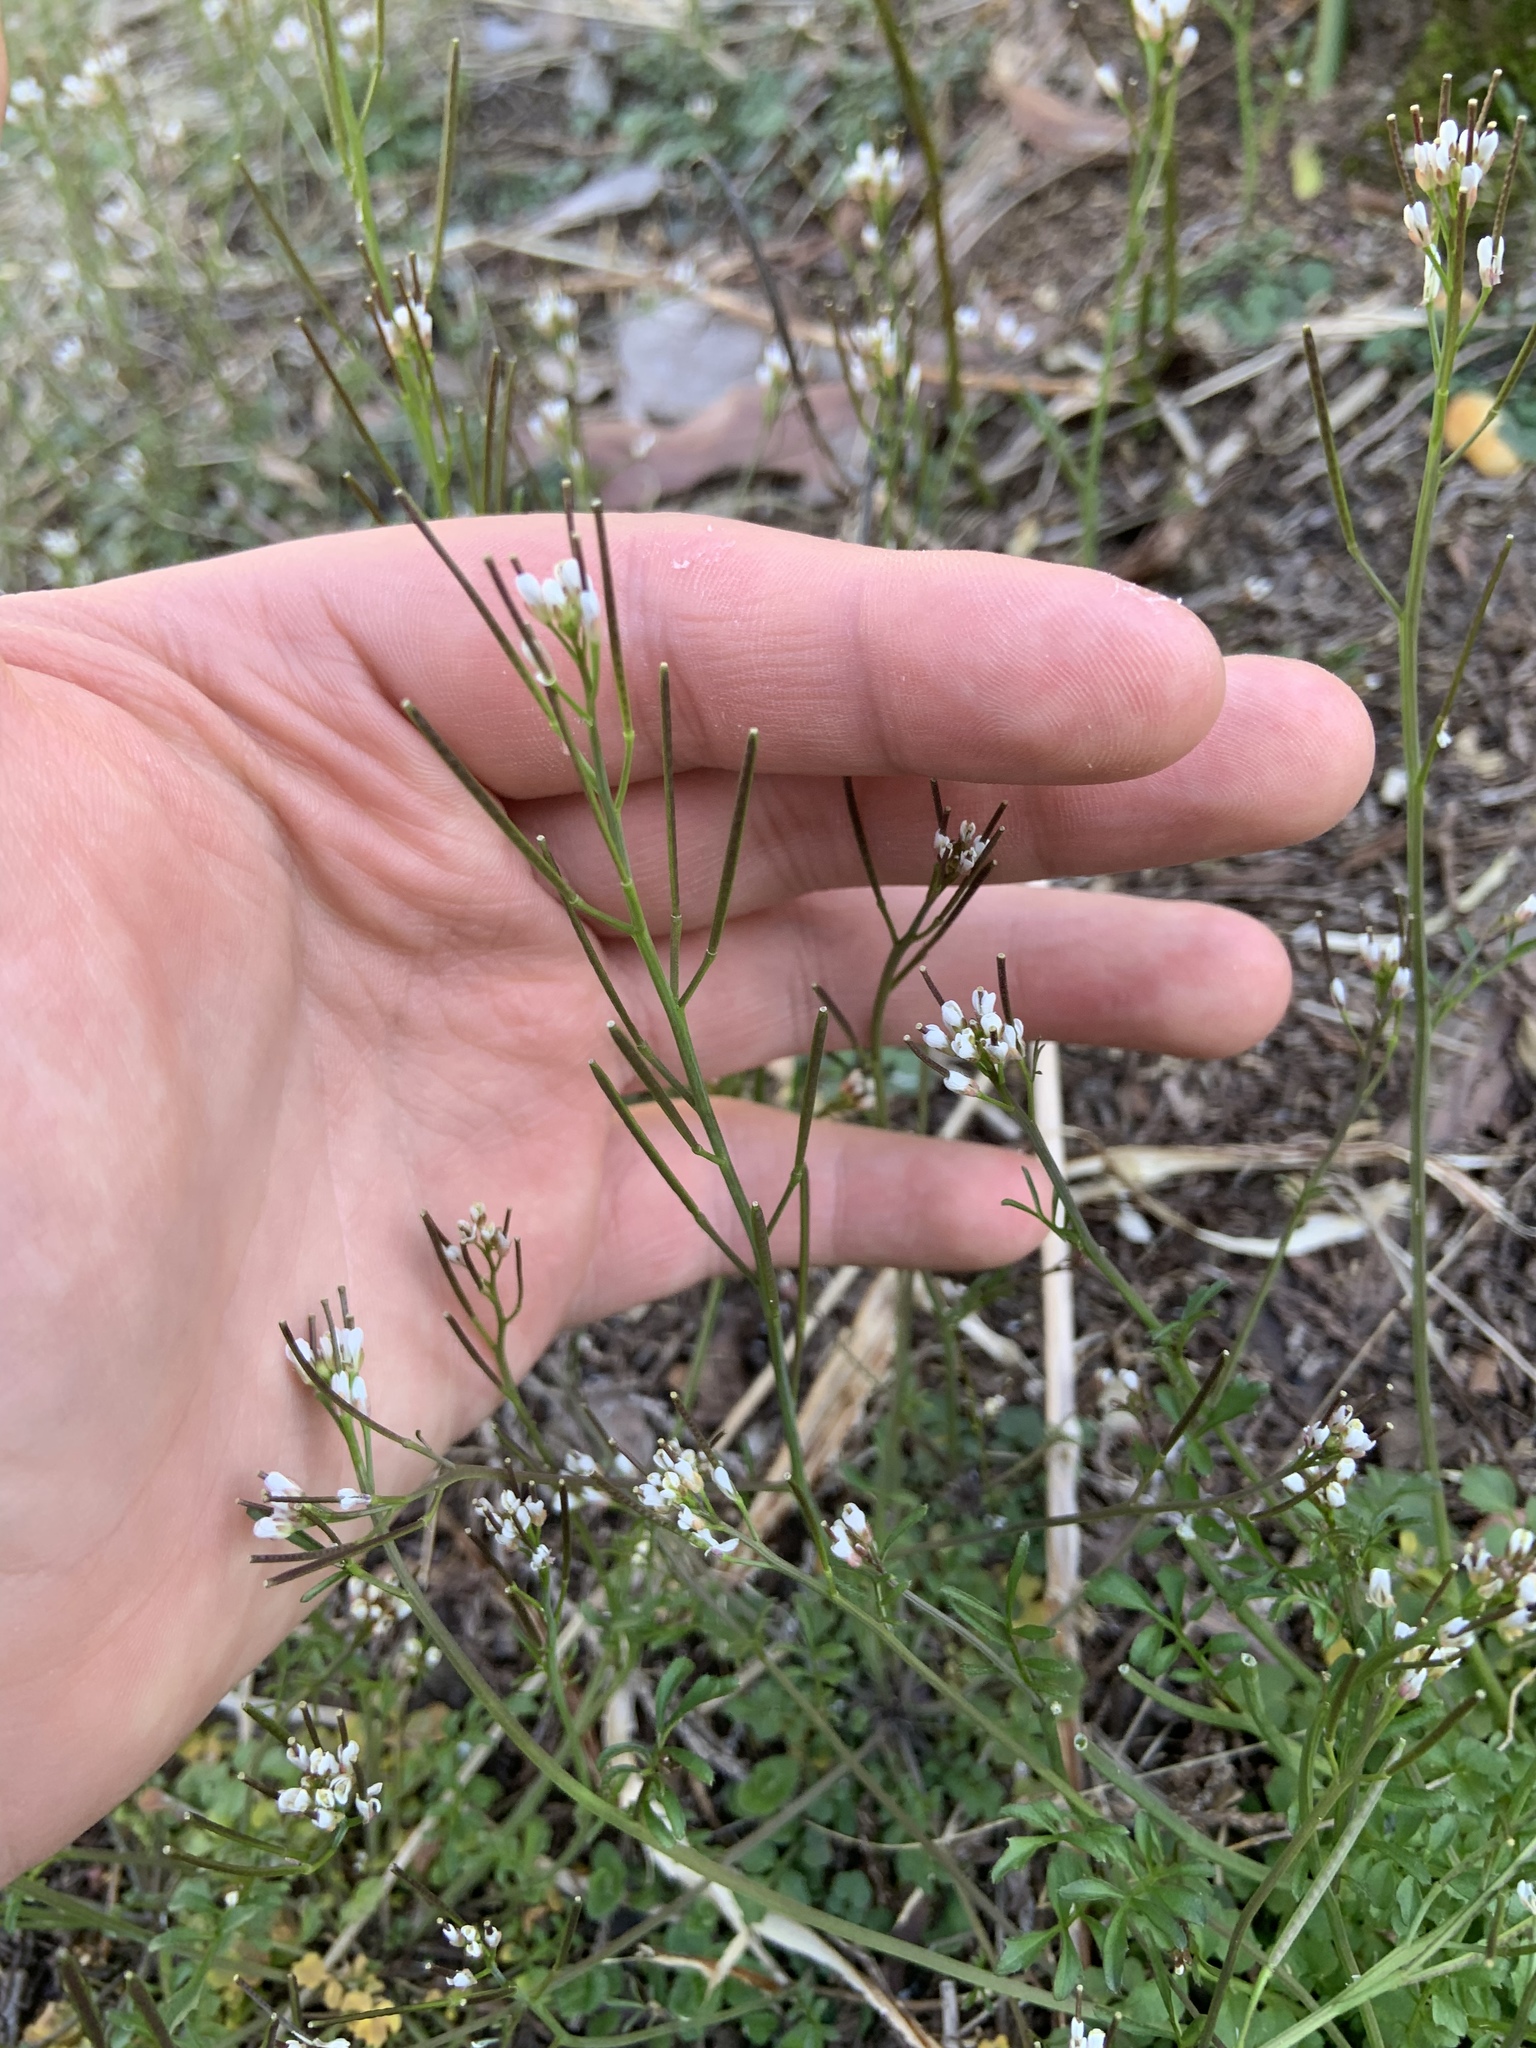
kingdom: Plantae
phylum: Tracheophyta
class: Magnoliopsida
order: Brassicales
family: Brassicaceae
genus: Cardamine
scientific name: Cardamine hirsuta
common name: Hairy bittercress
